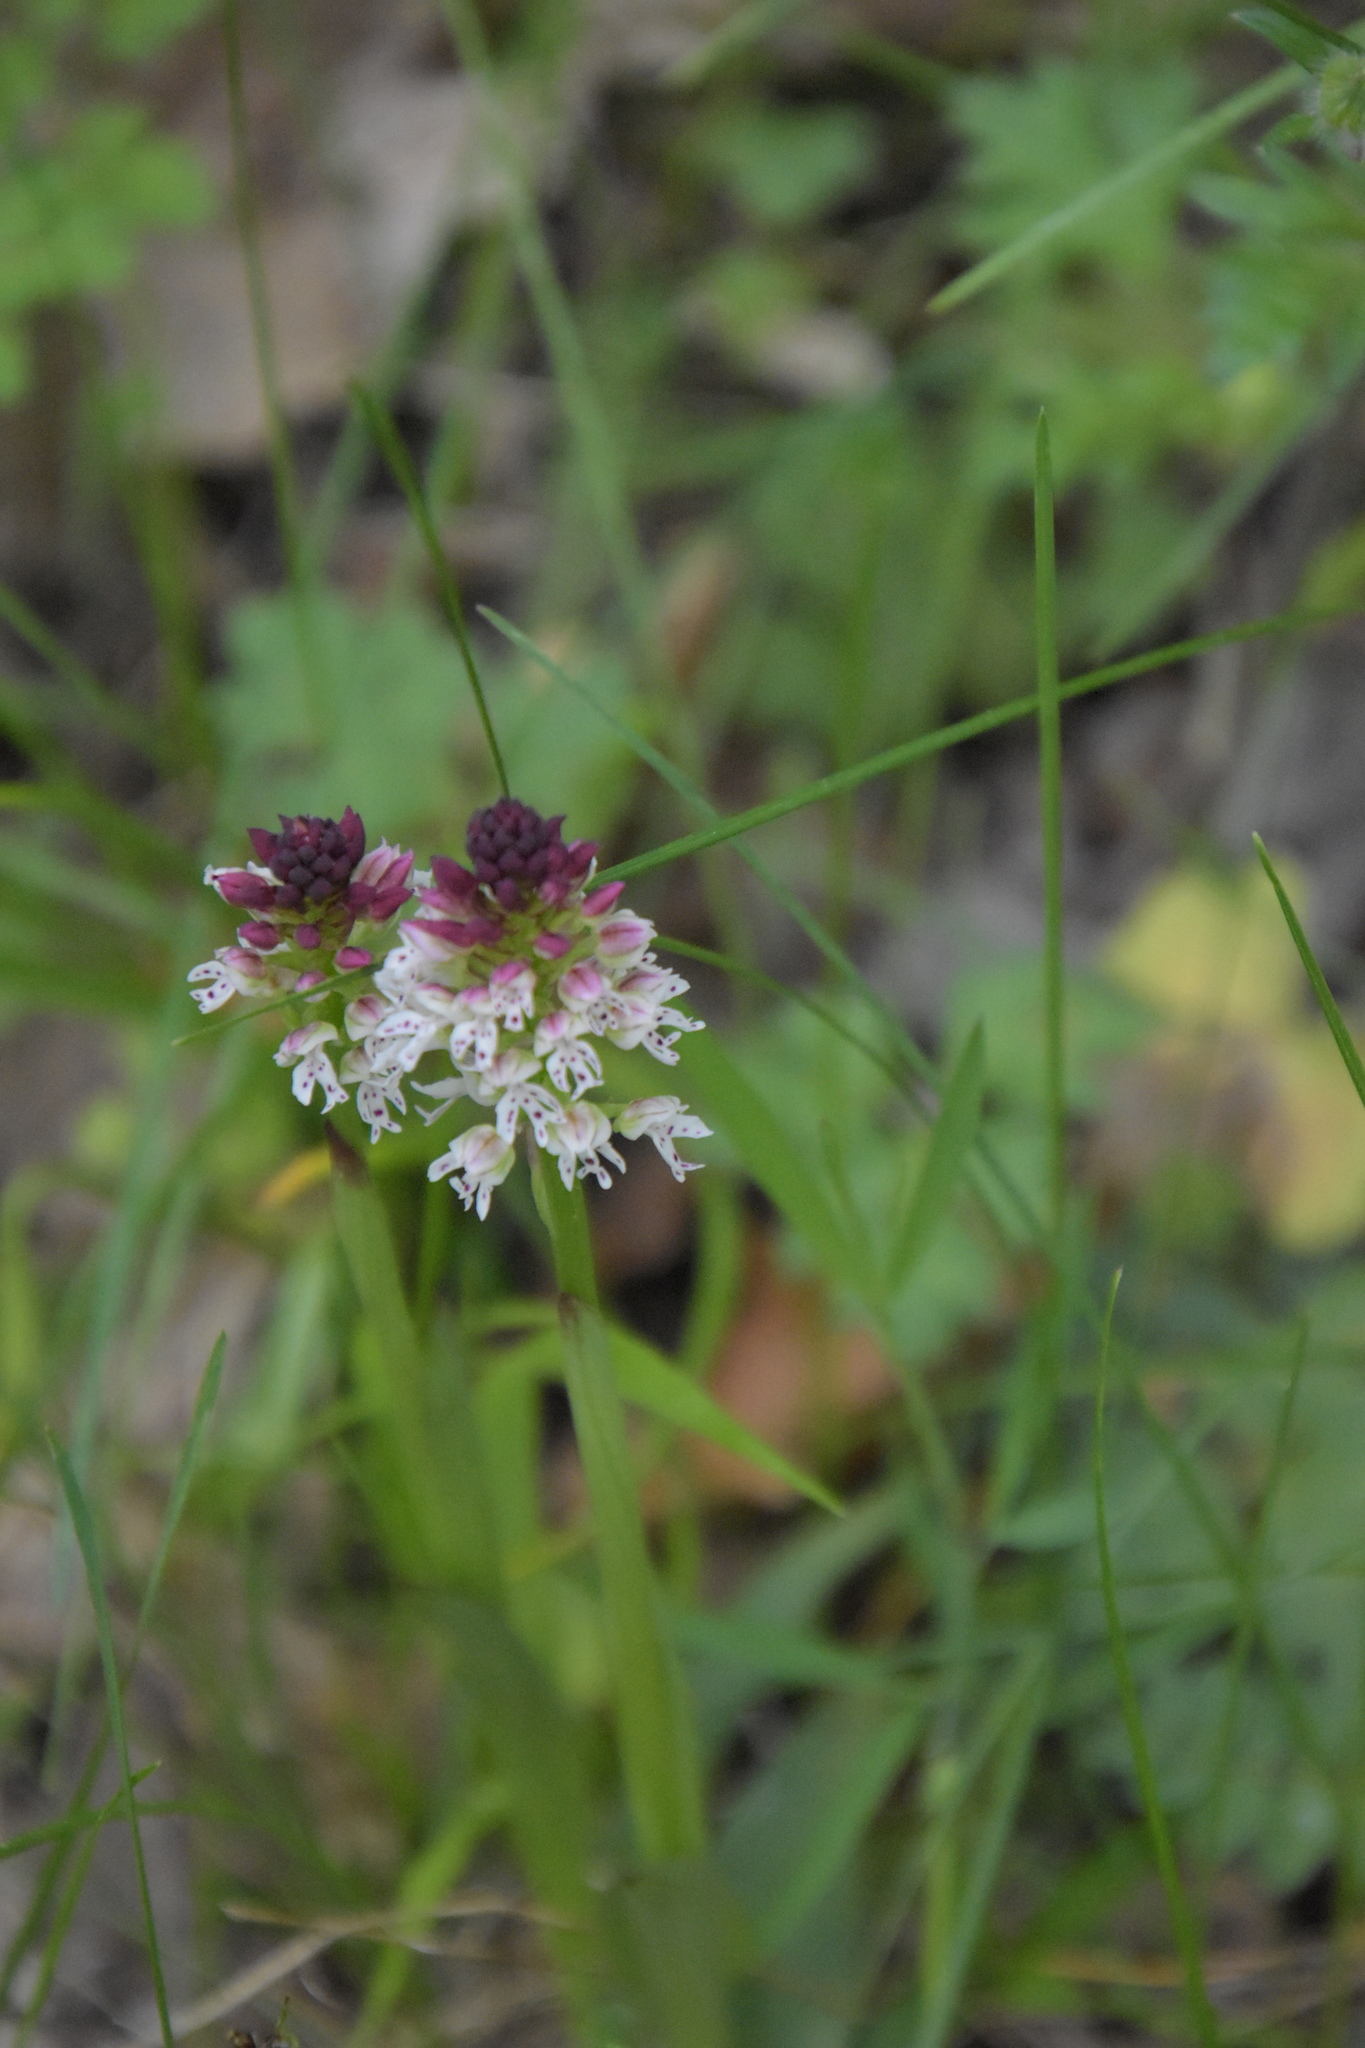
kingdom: Plantae
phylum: Tracheophyta
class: Liliopsida
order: Asparagales
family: Orchidaceae
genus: Neotinea
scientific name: Neotinea ustulata
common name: Burnt orchid
